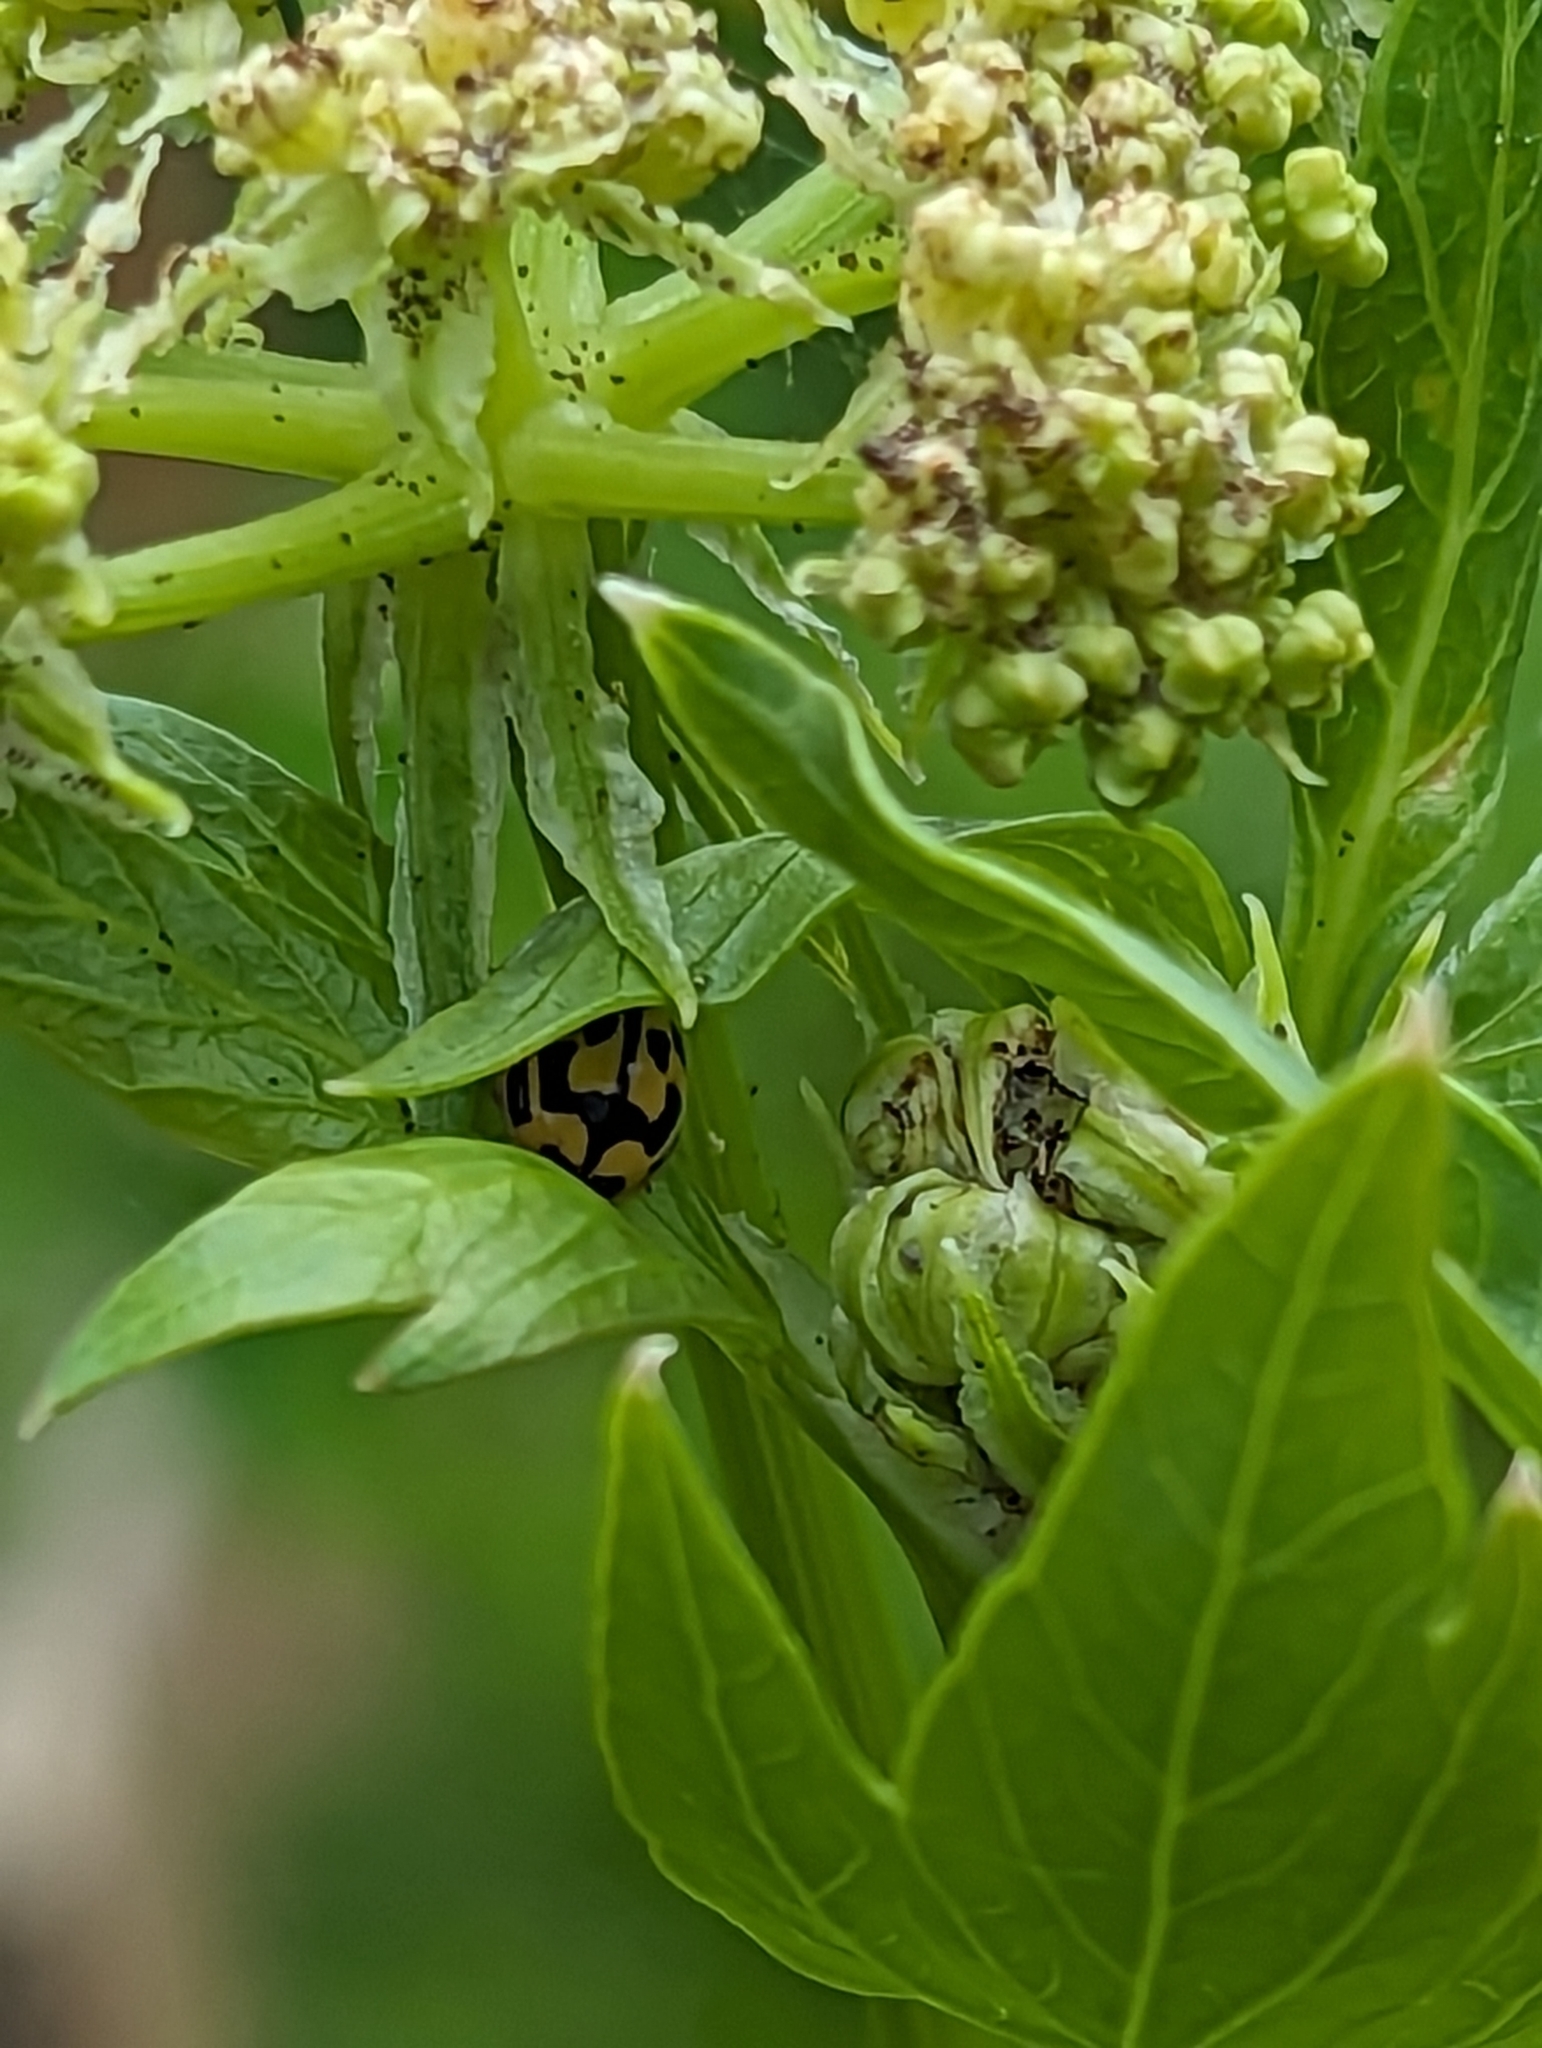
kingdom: Animalia
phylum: Arthropoda
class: Insecta
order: Coleoptera
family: Coccinellidae
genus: Propylaea
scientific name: Propylaea quatuordecimpunctata
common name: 14-spotted ladybird beetle
